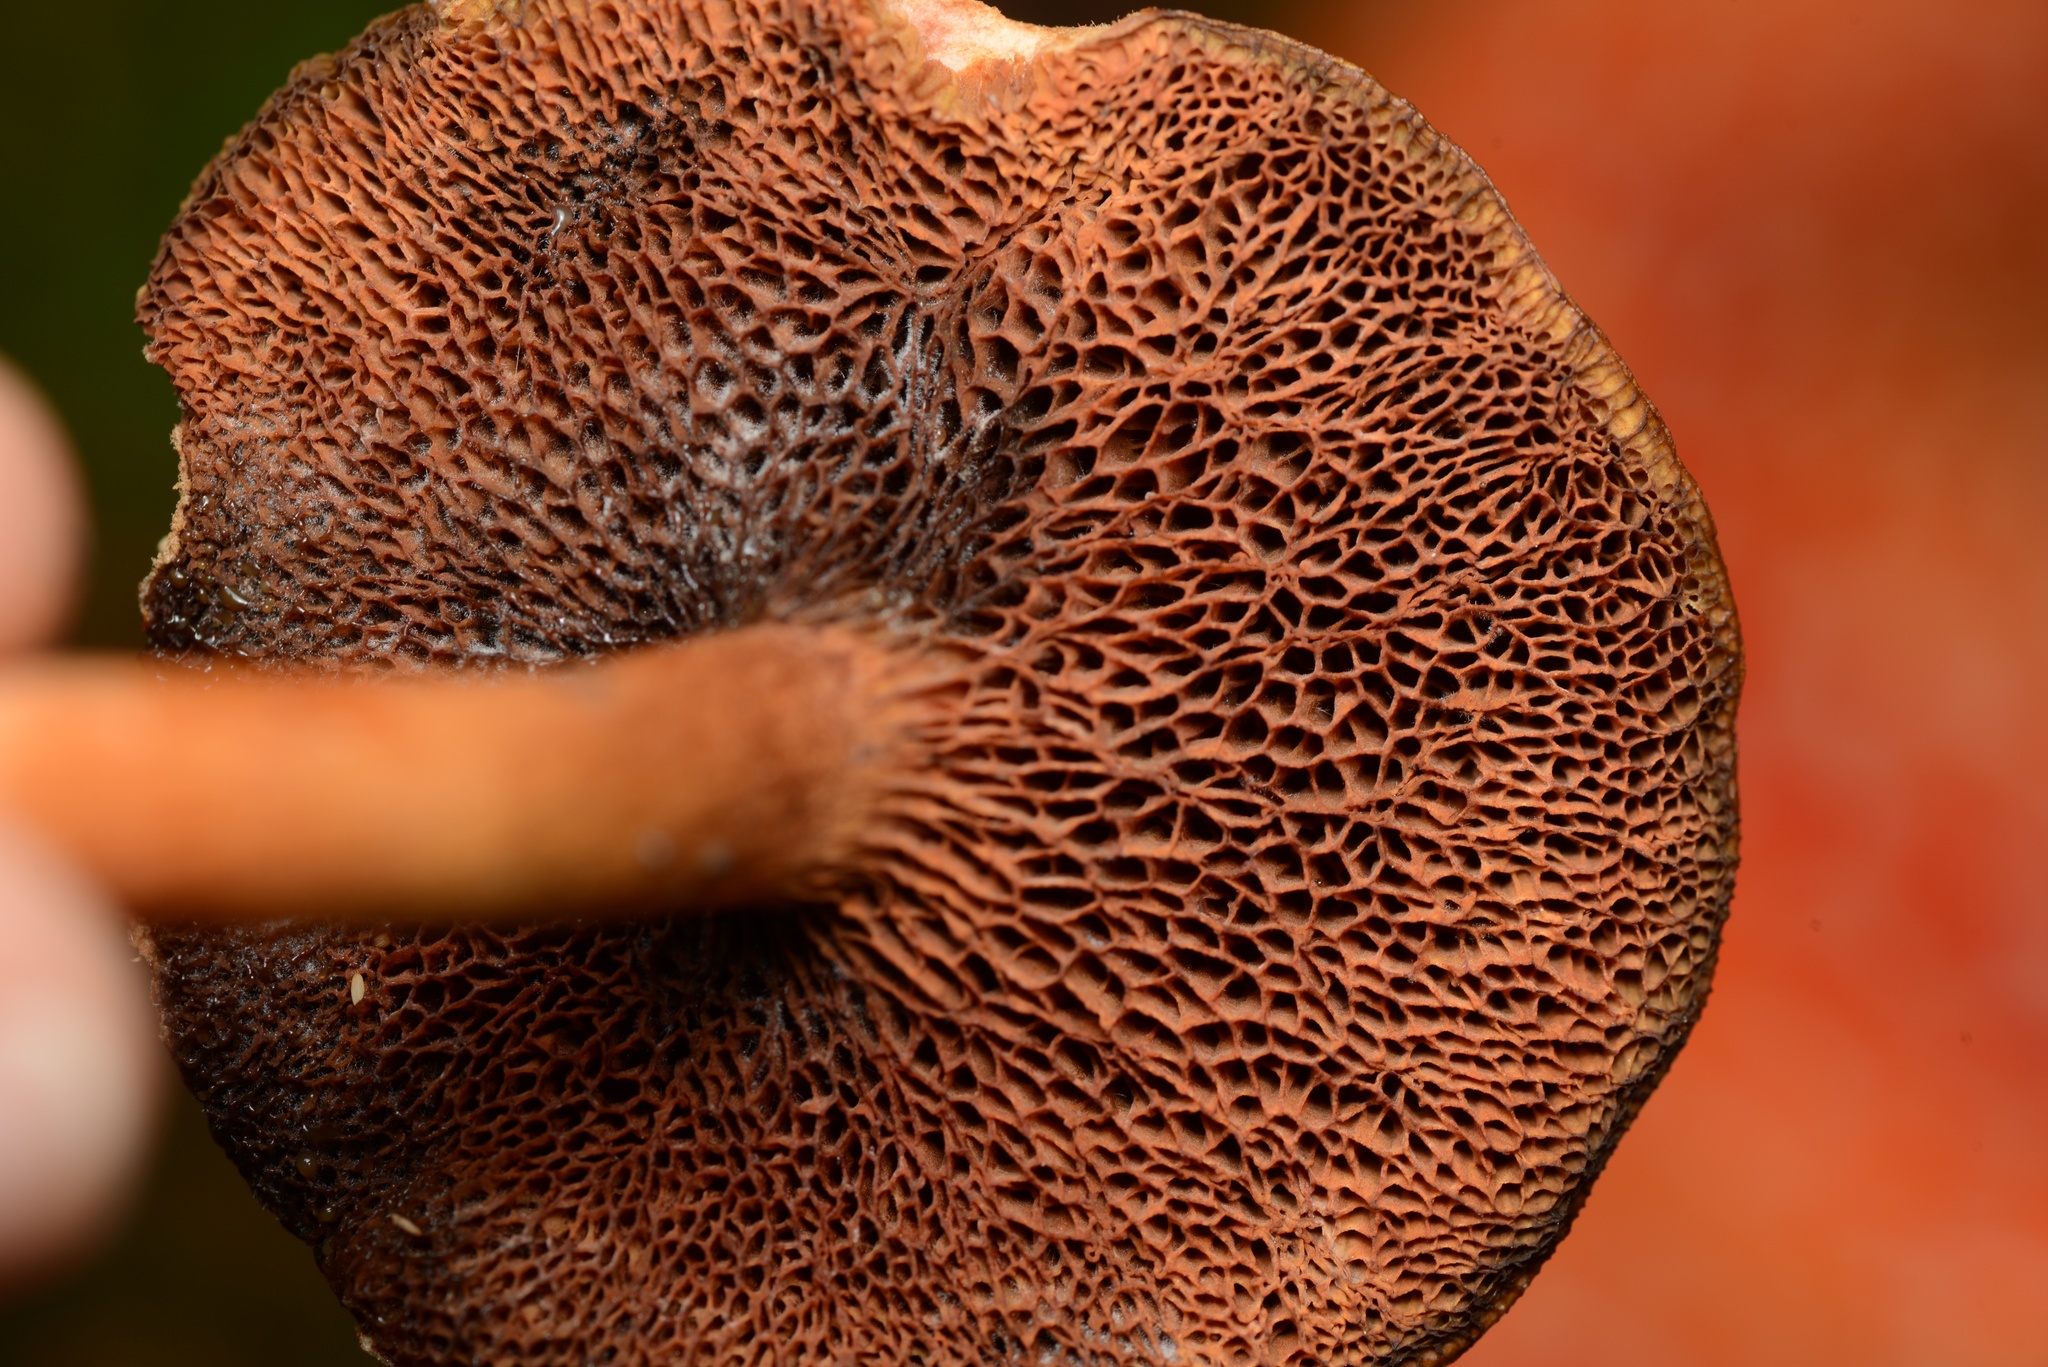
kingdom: Fungi
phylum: Basidiomycota
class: Agaricomycetes
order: Boletales
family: Boletaceae
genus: Chalciporus
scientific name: Chalciporus piperatus
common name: Peppery bolete
